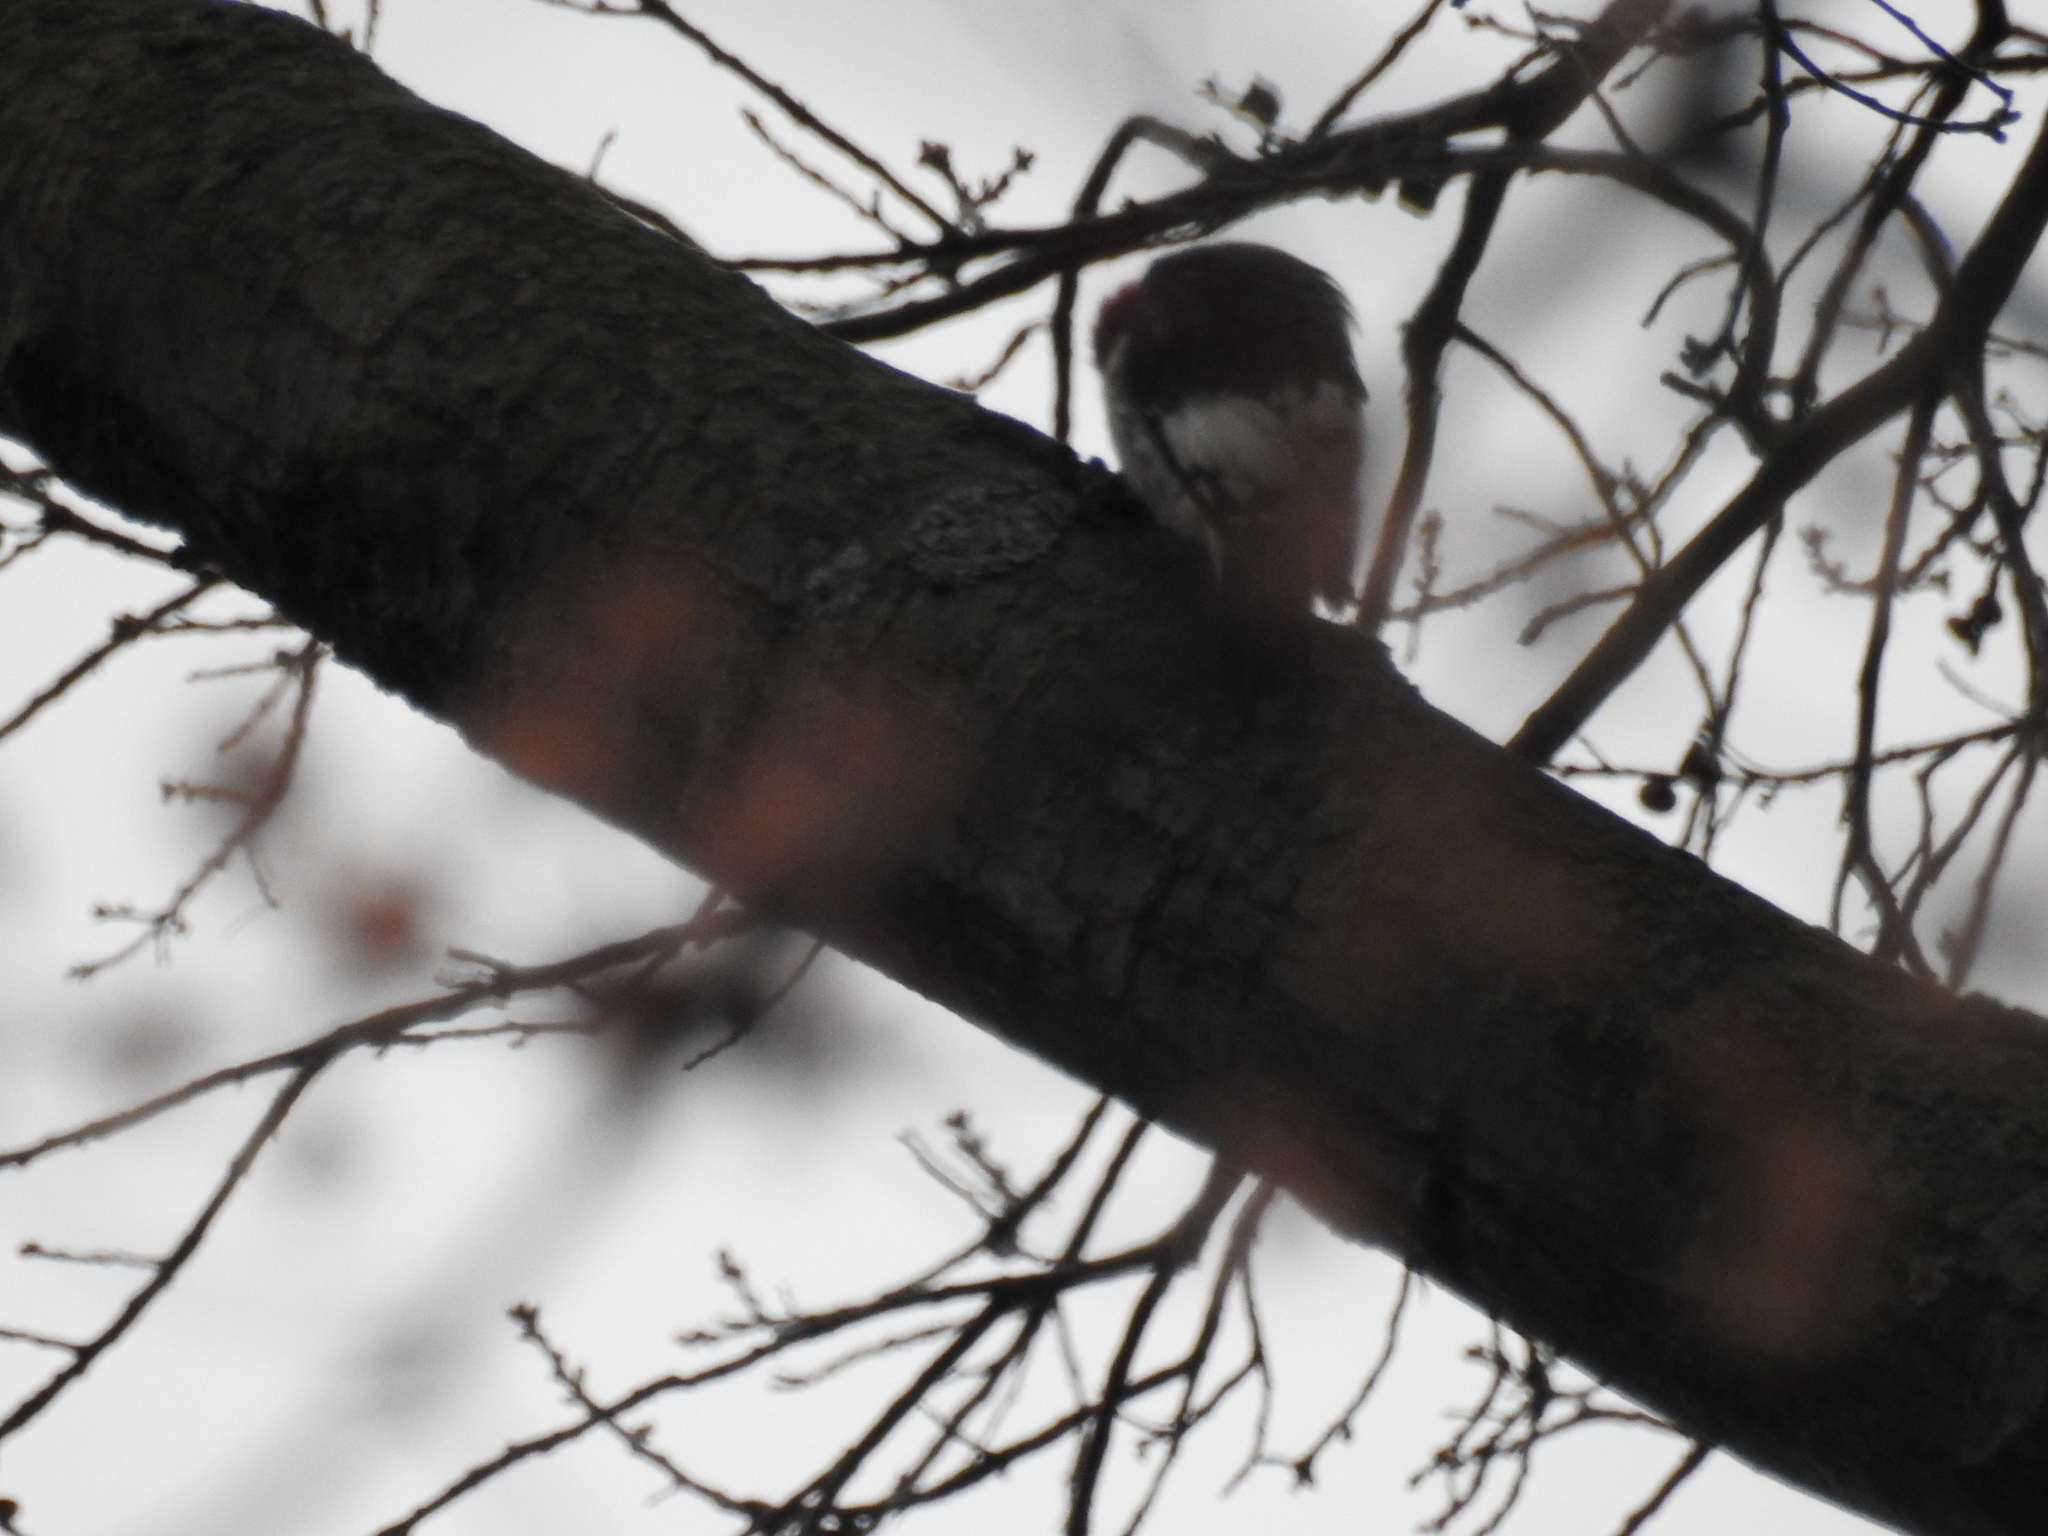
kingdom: Animalia
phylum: Chordata
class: Aves
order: Piciformes
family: Picidae
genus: Melanerpes
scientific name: Melanerpes erythrocephalus
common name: Red-headed woodpecker
